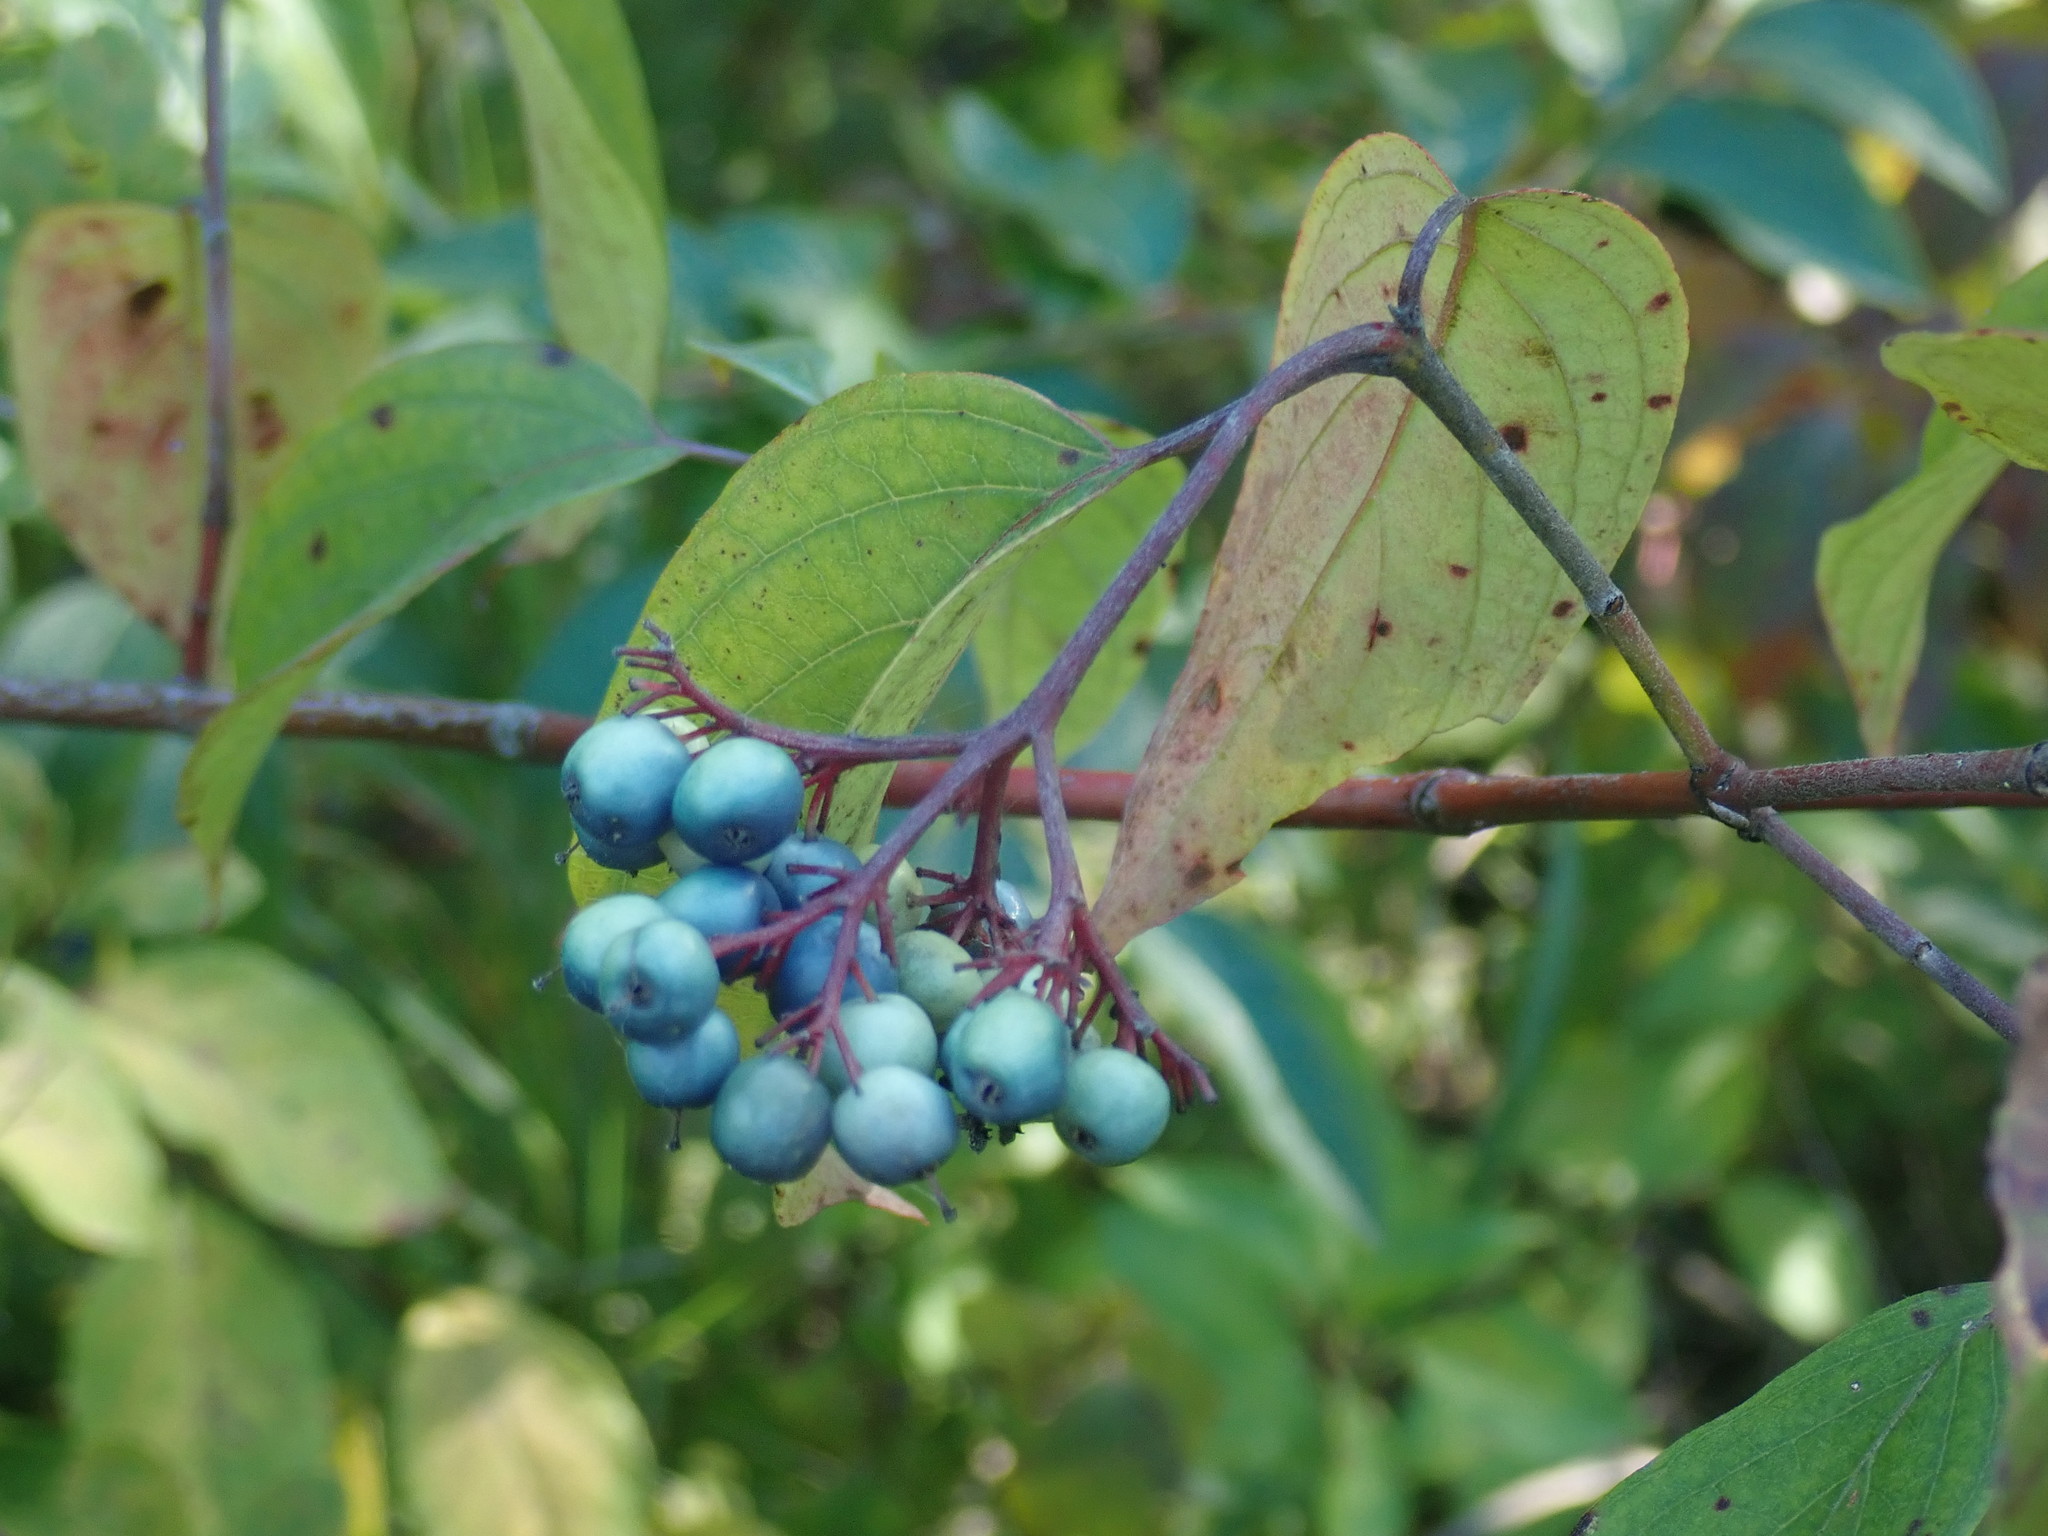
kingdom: Plantae
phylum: Tracheophyta
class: Magnoliopsida
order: Cornales
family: Cornaceae
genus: Cornus
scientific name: Cornus amomum
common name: Silky dogwood
